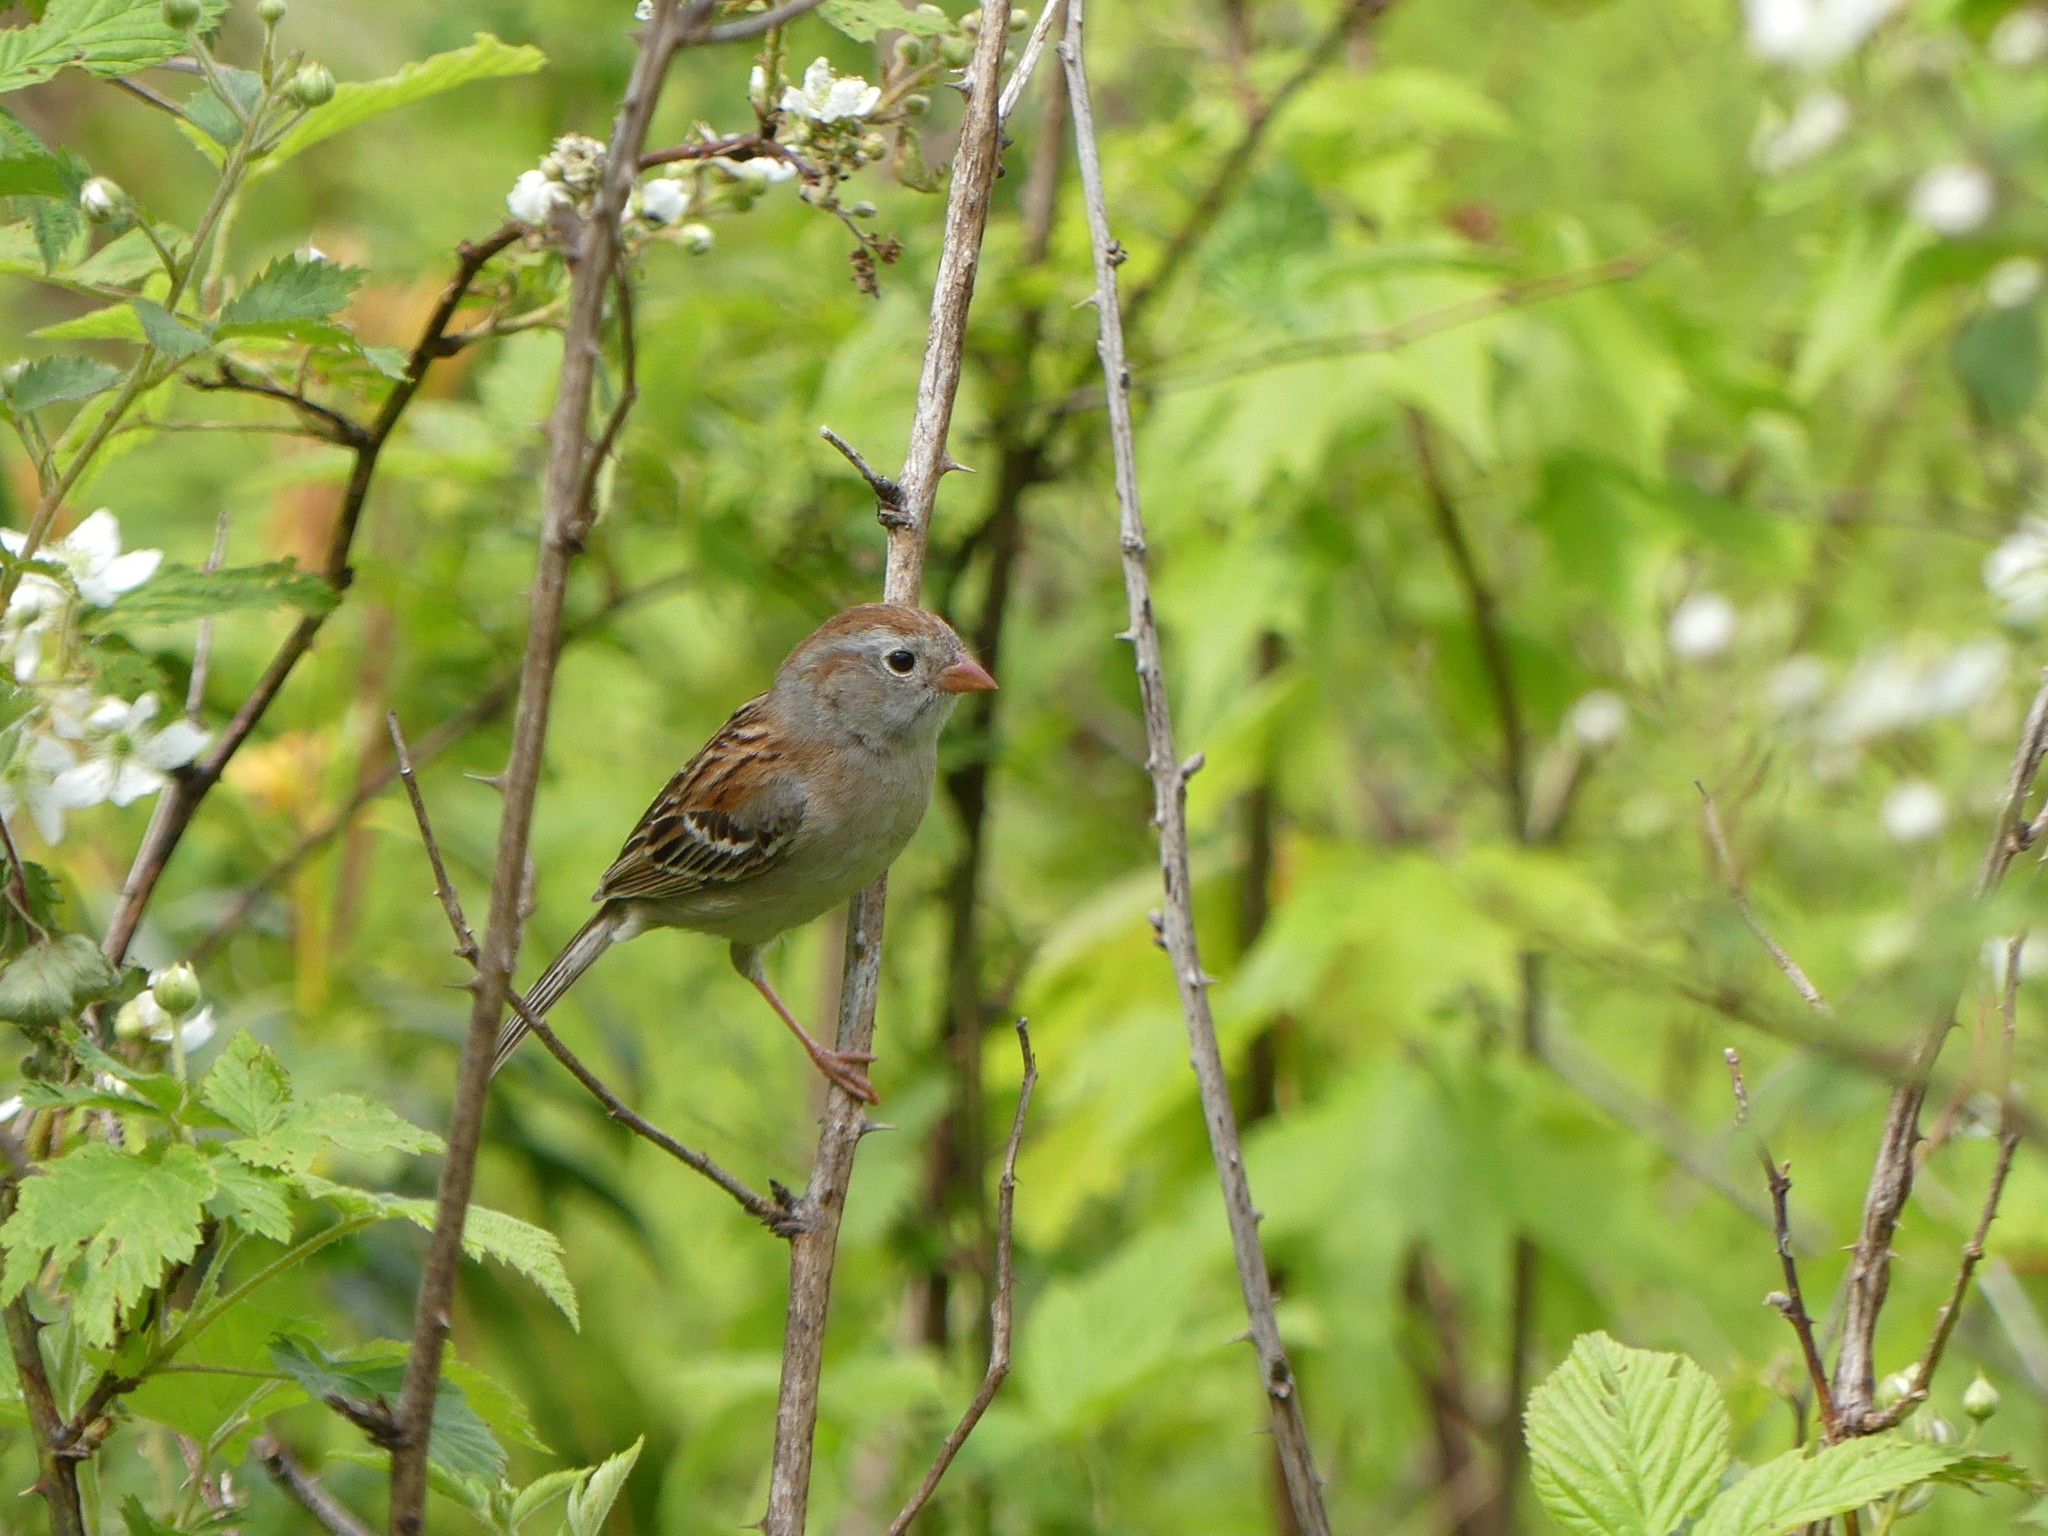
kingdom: Animalia
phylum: Chordata
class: Aves
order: Passeriformes
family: Passerellidae
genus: Spizella
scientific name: Spizella pusilla
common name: Field sparrow
